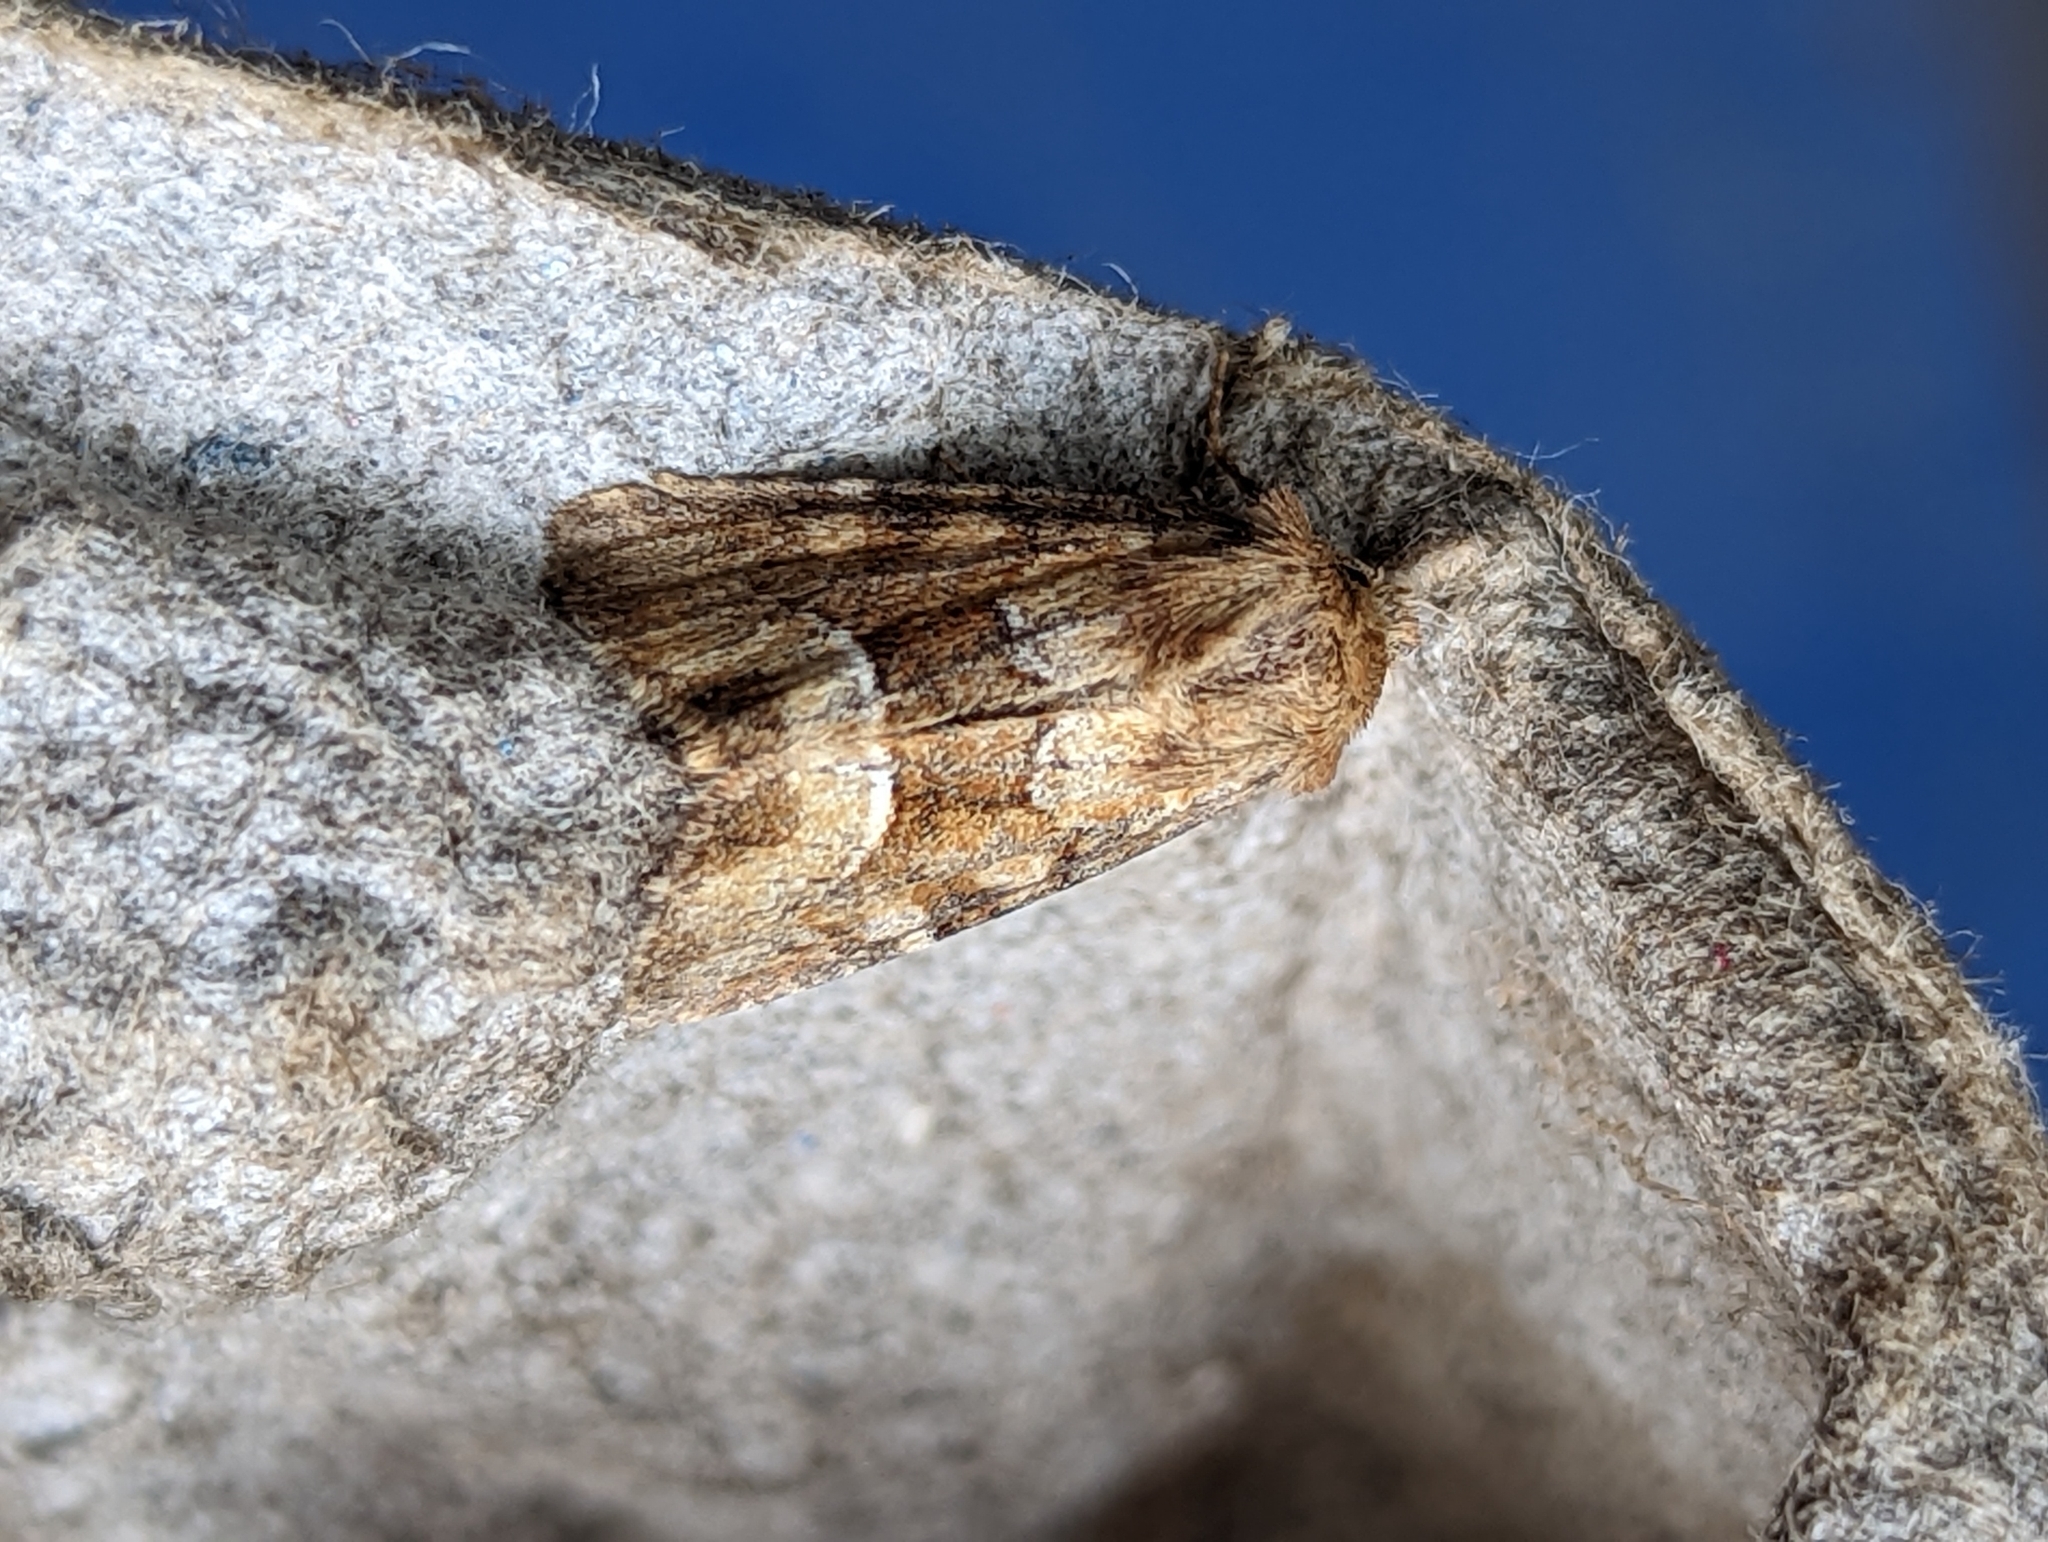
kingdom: Animalia
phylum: Arthropoda
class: Insecta
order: Lepidoptera
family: Noctuidae
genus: Oligia
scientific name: Oligia fasciuncula
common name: Middle-barred minor
